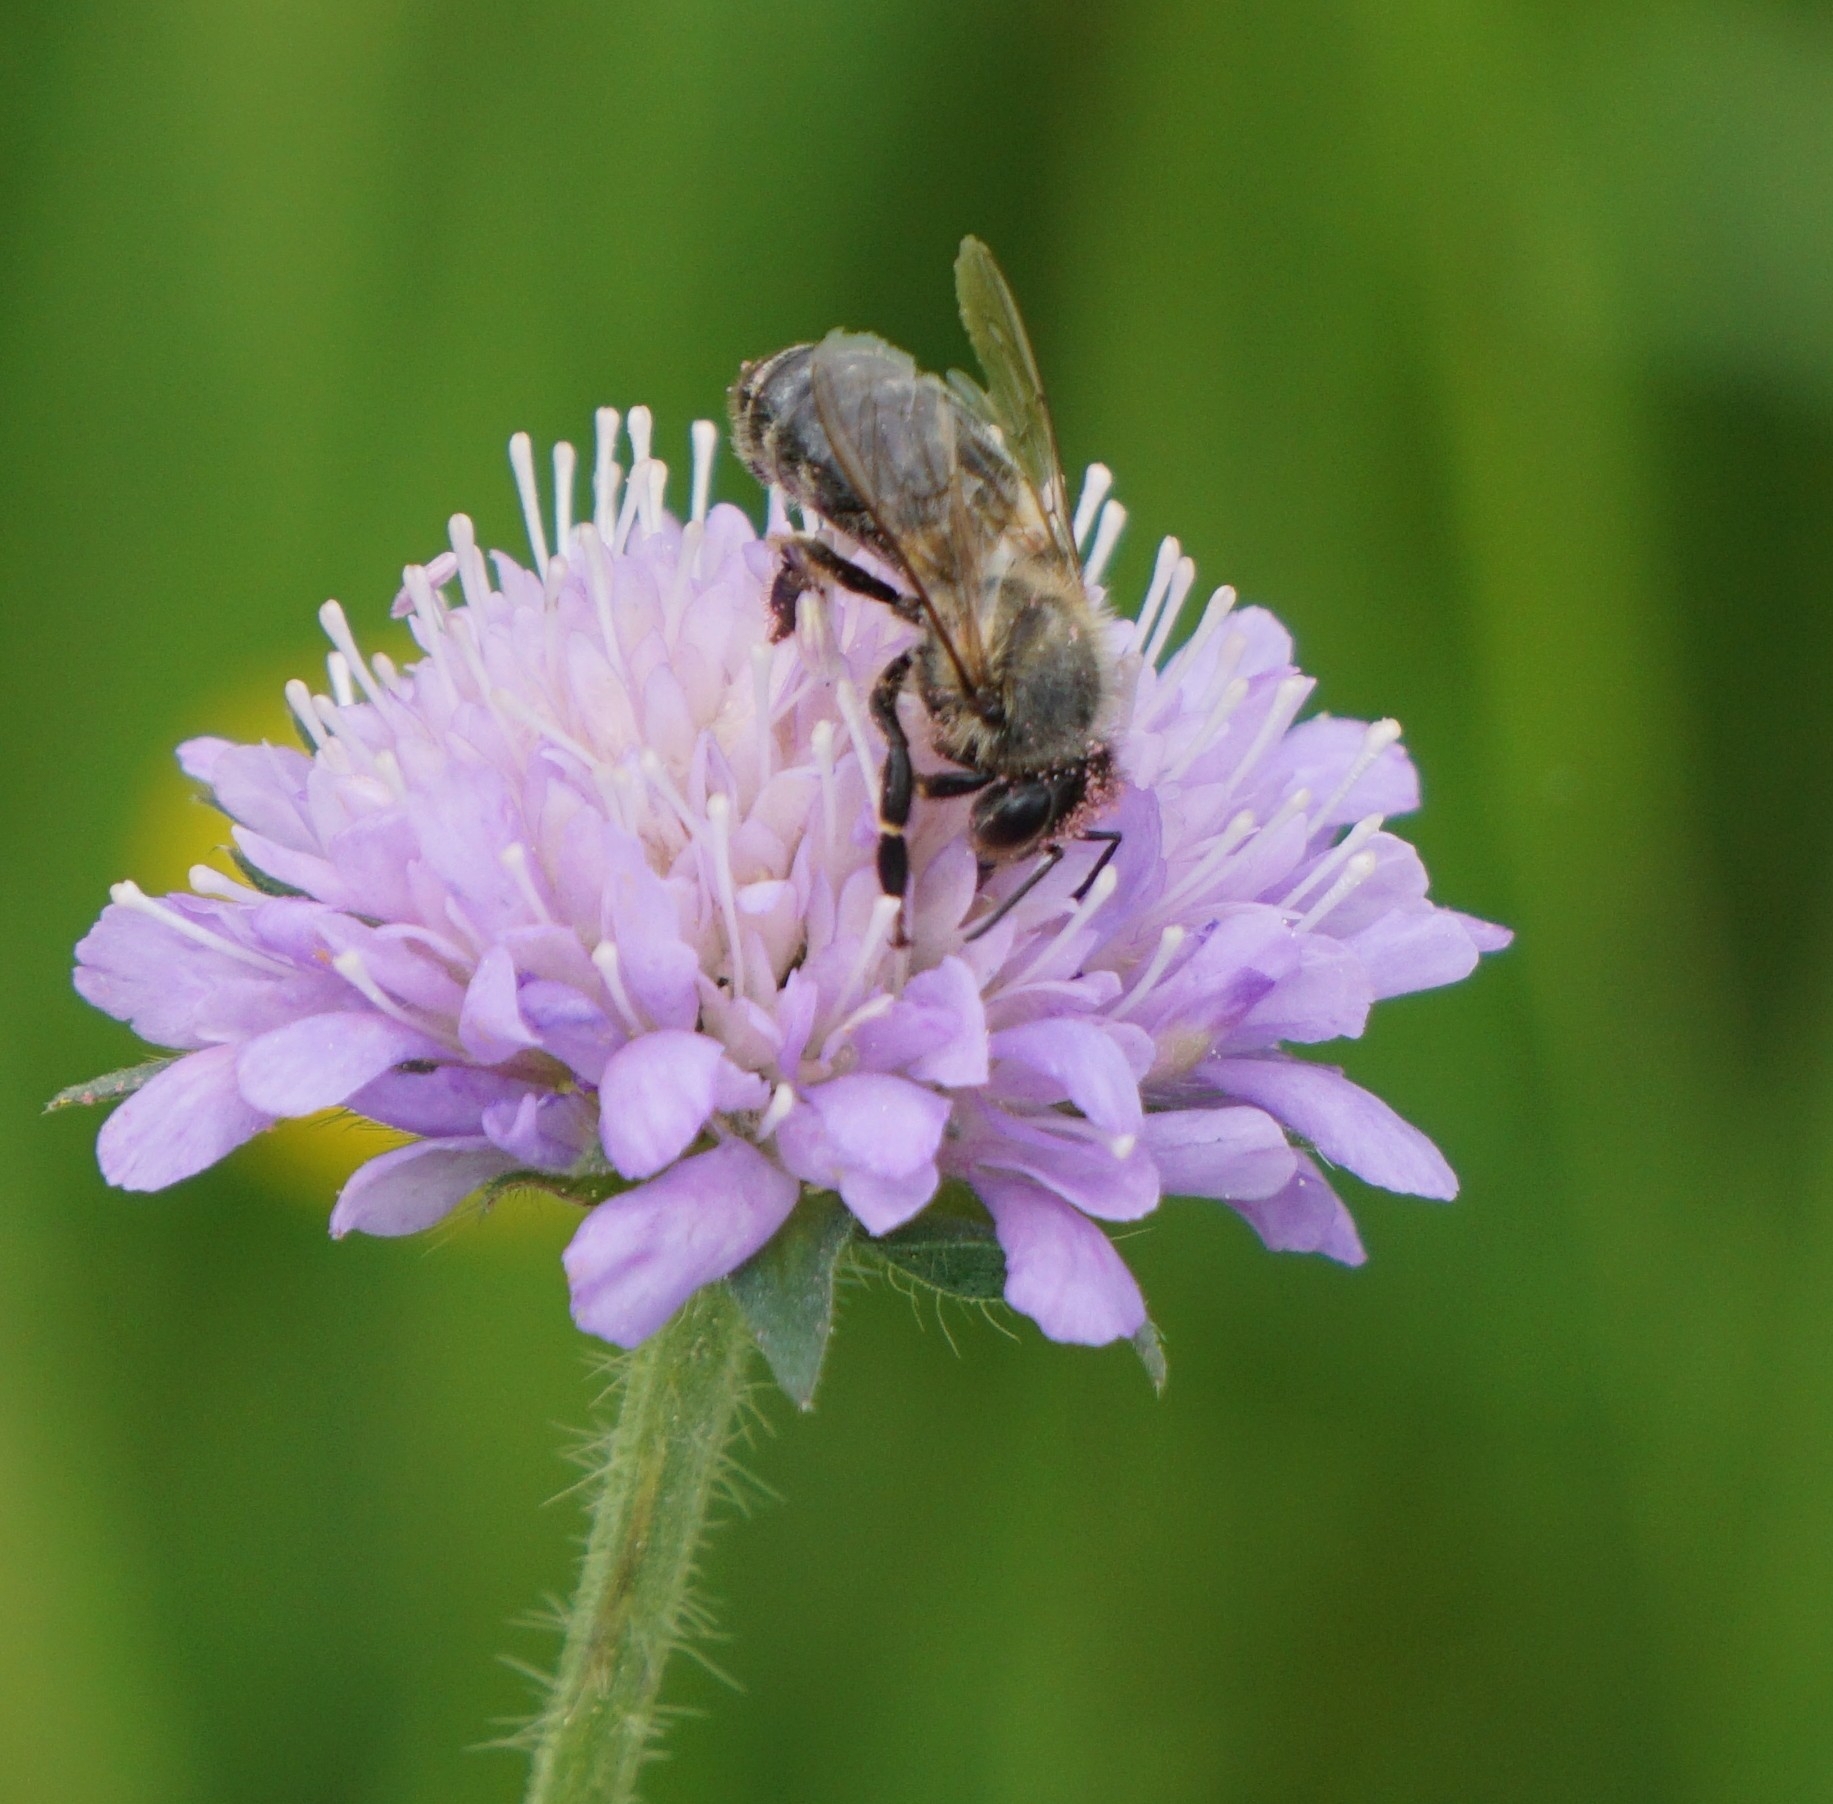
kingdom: Animalia
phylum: Arthropoda
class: Insecta
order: Hymenoptera
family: Apidae
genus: Apis
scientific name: Apis mellifera
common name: Honey bee
